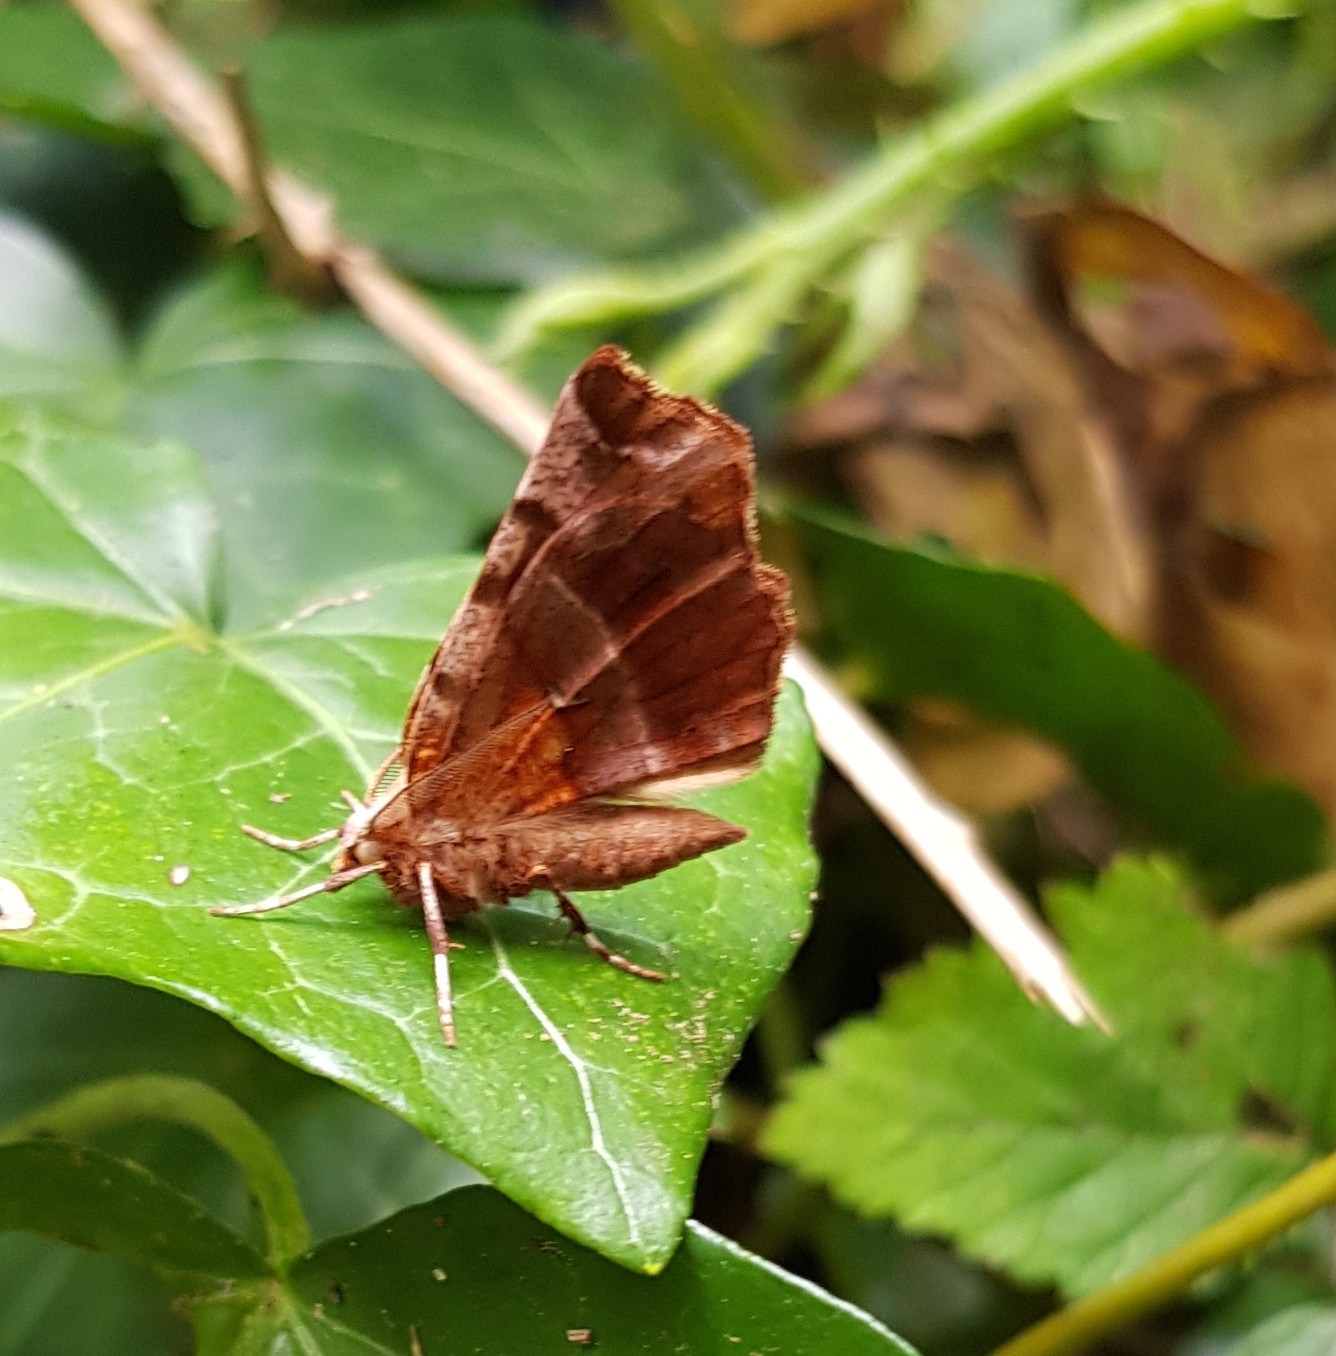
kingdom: Animalia
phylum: Arthropoda
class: Insecta
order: Lepidoptera
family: Geometridae
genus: Selenia
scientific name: Selenia dentaria
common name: Early thorn
